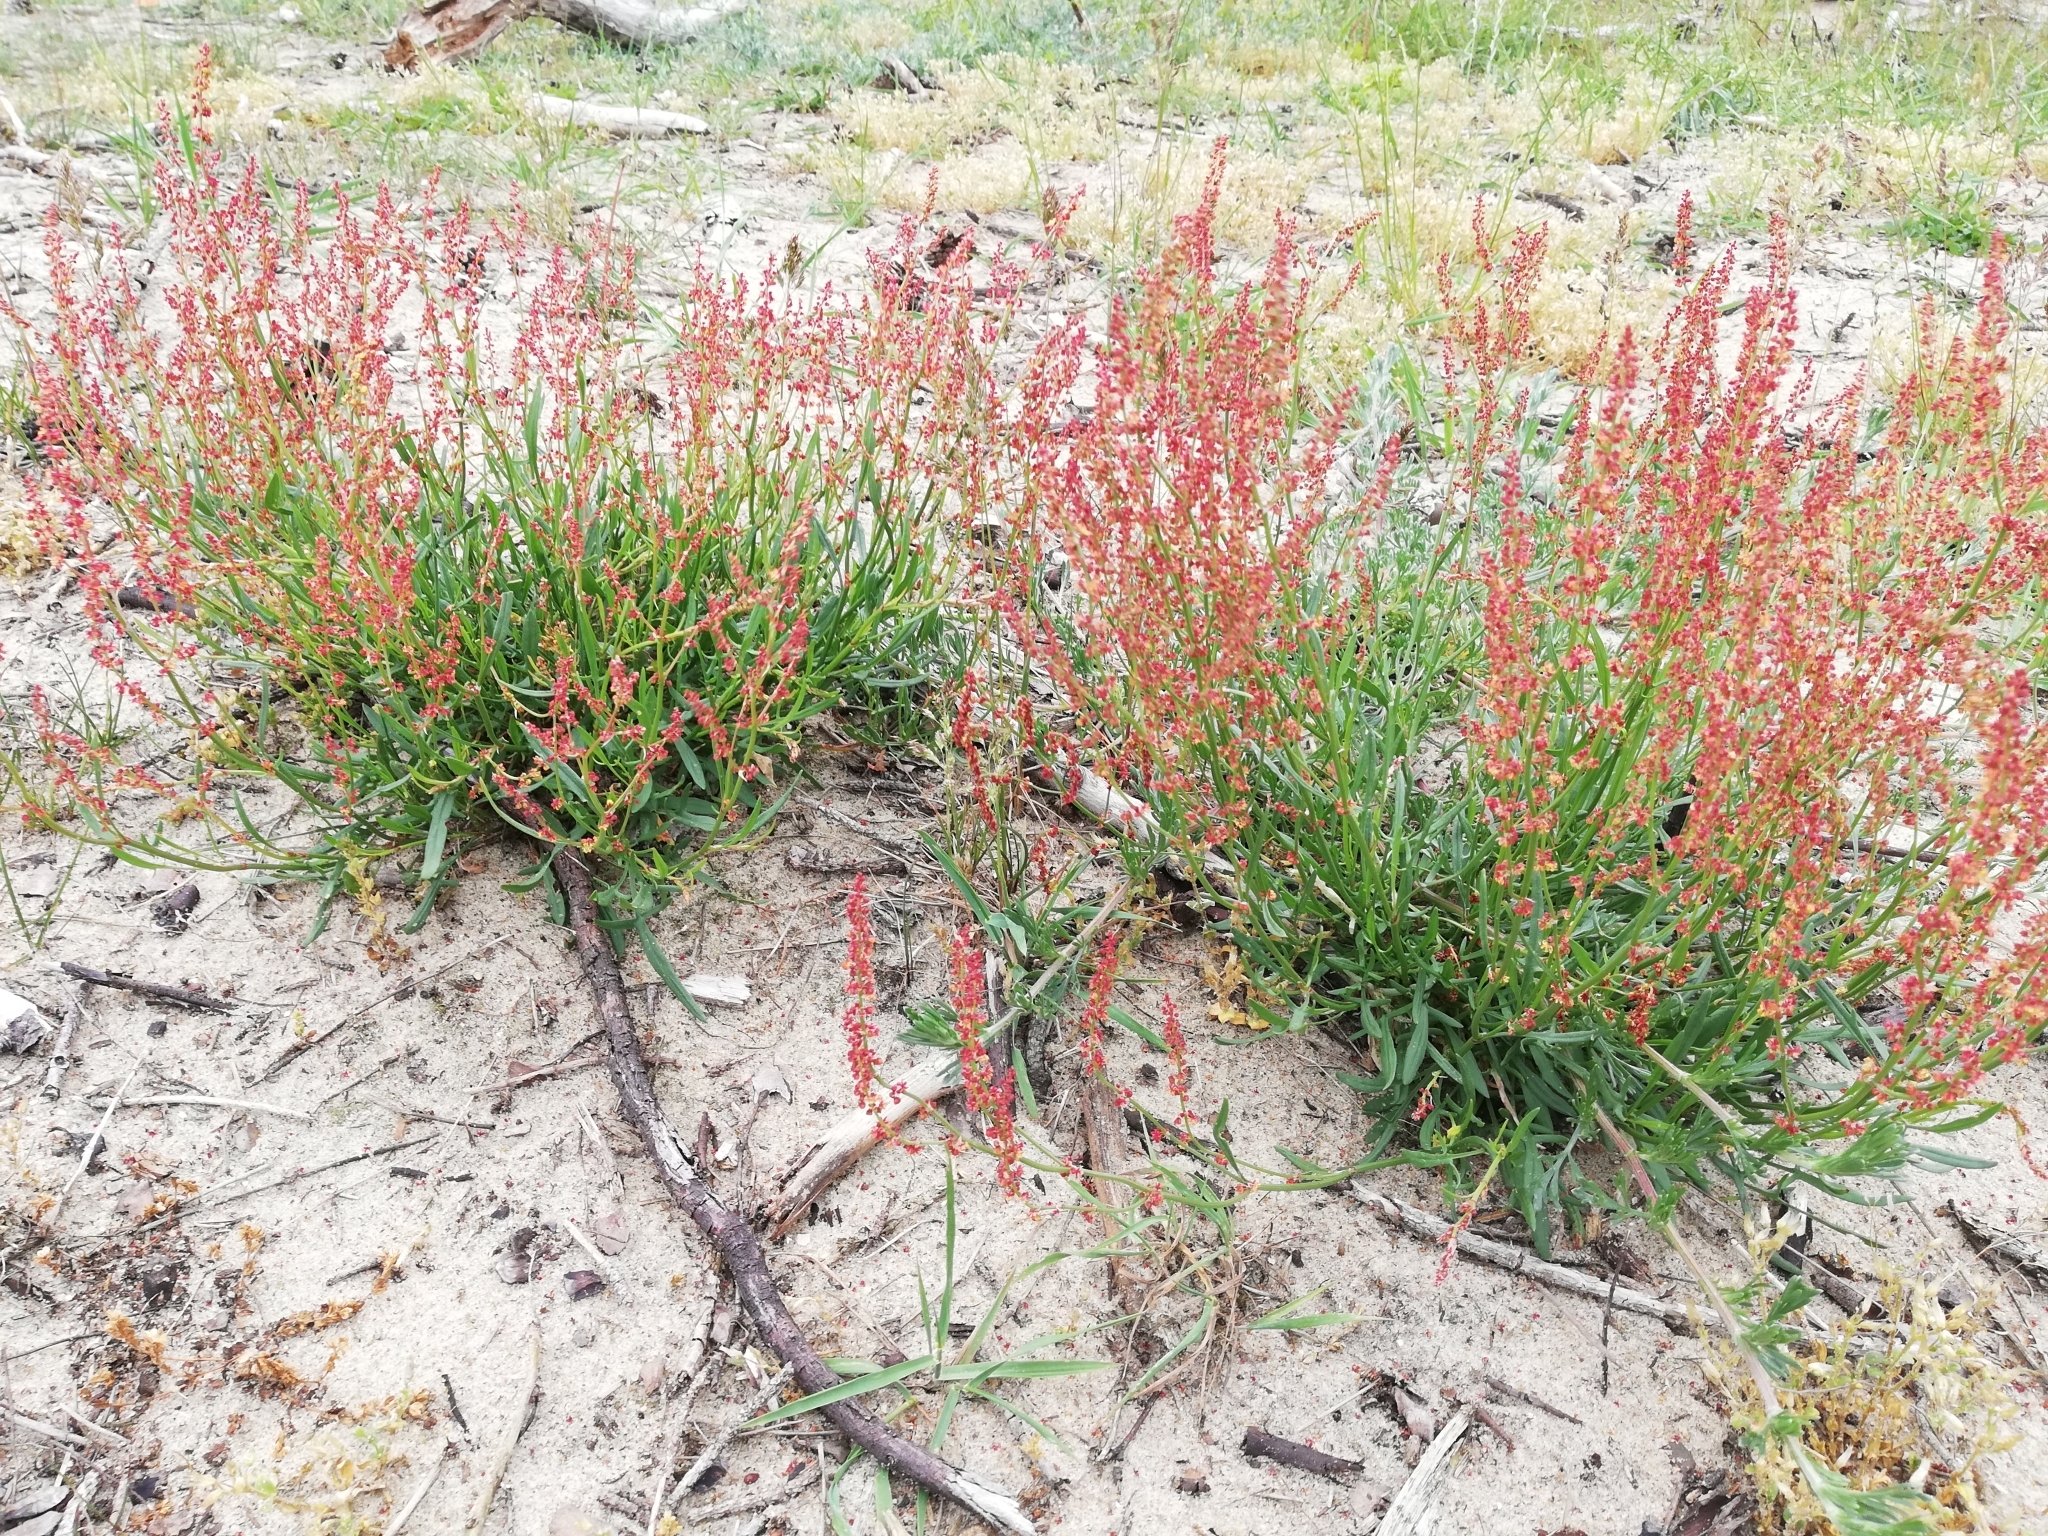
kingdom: Plantae
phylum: Tracheophyta
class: Magnoliopsida
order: Caryophyllales
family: Polygonaceae
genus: Rumex
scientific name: Rumex acetosella
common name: Common sheep sorrel
